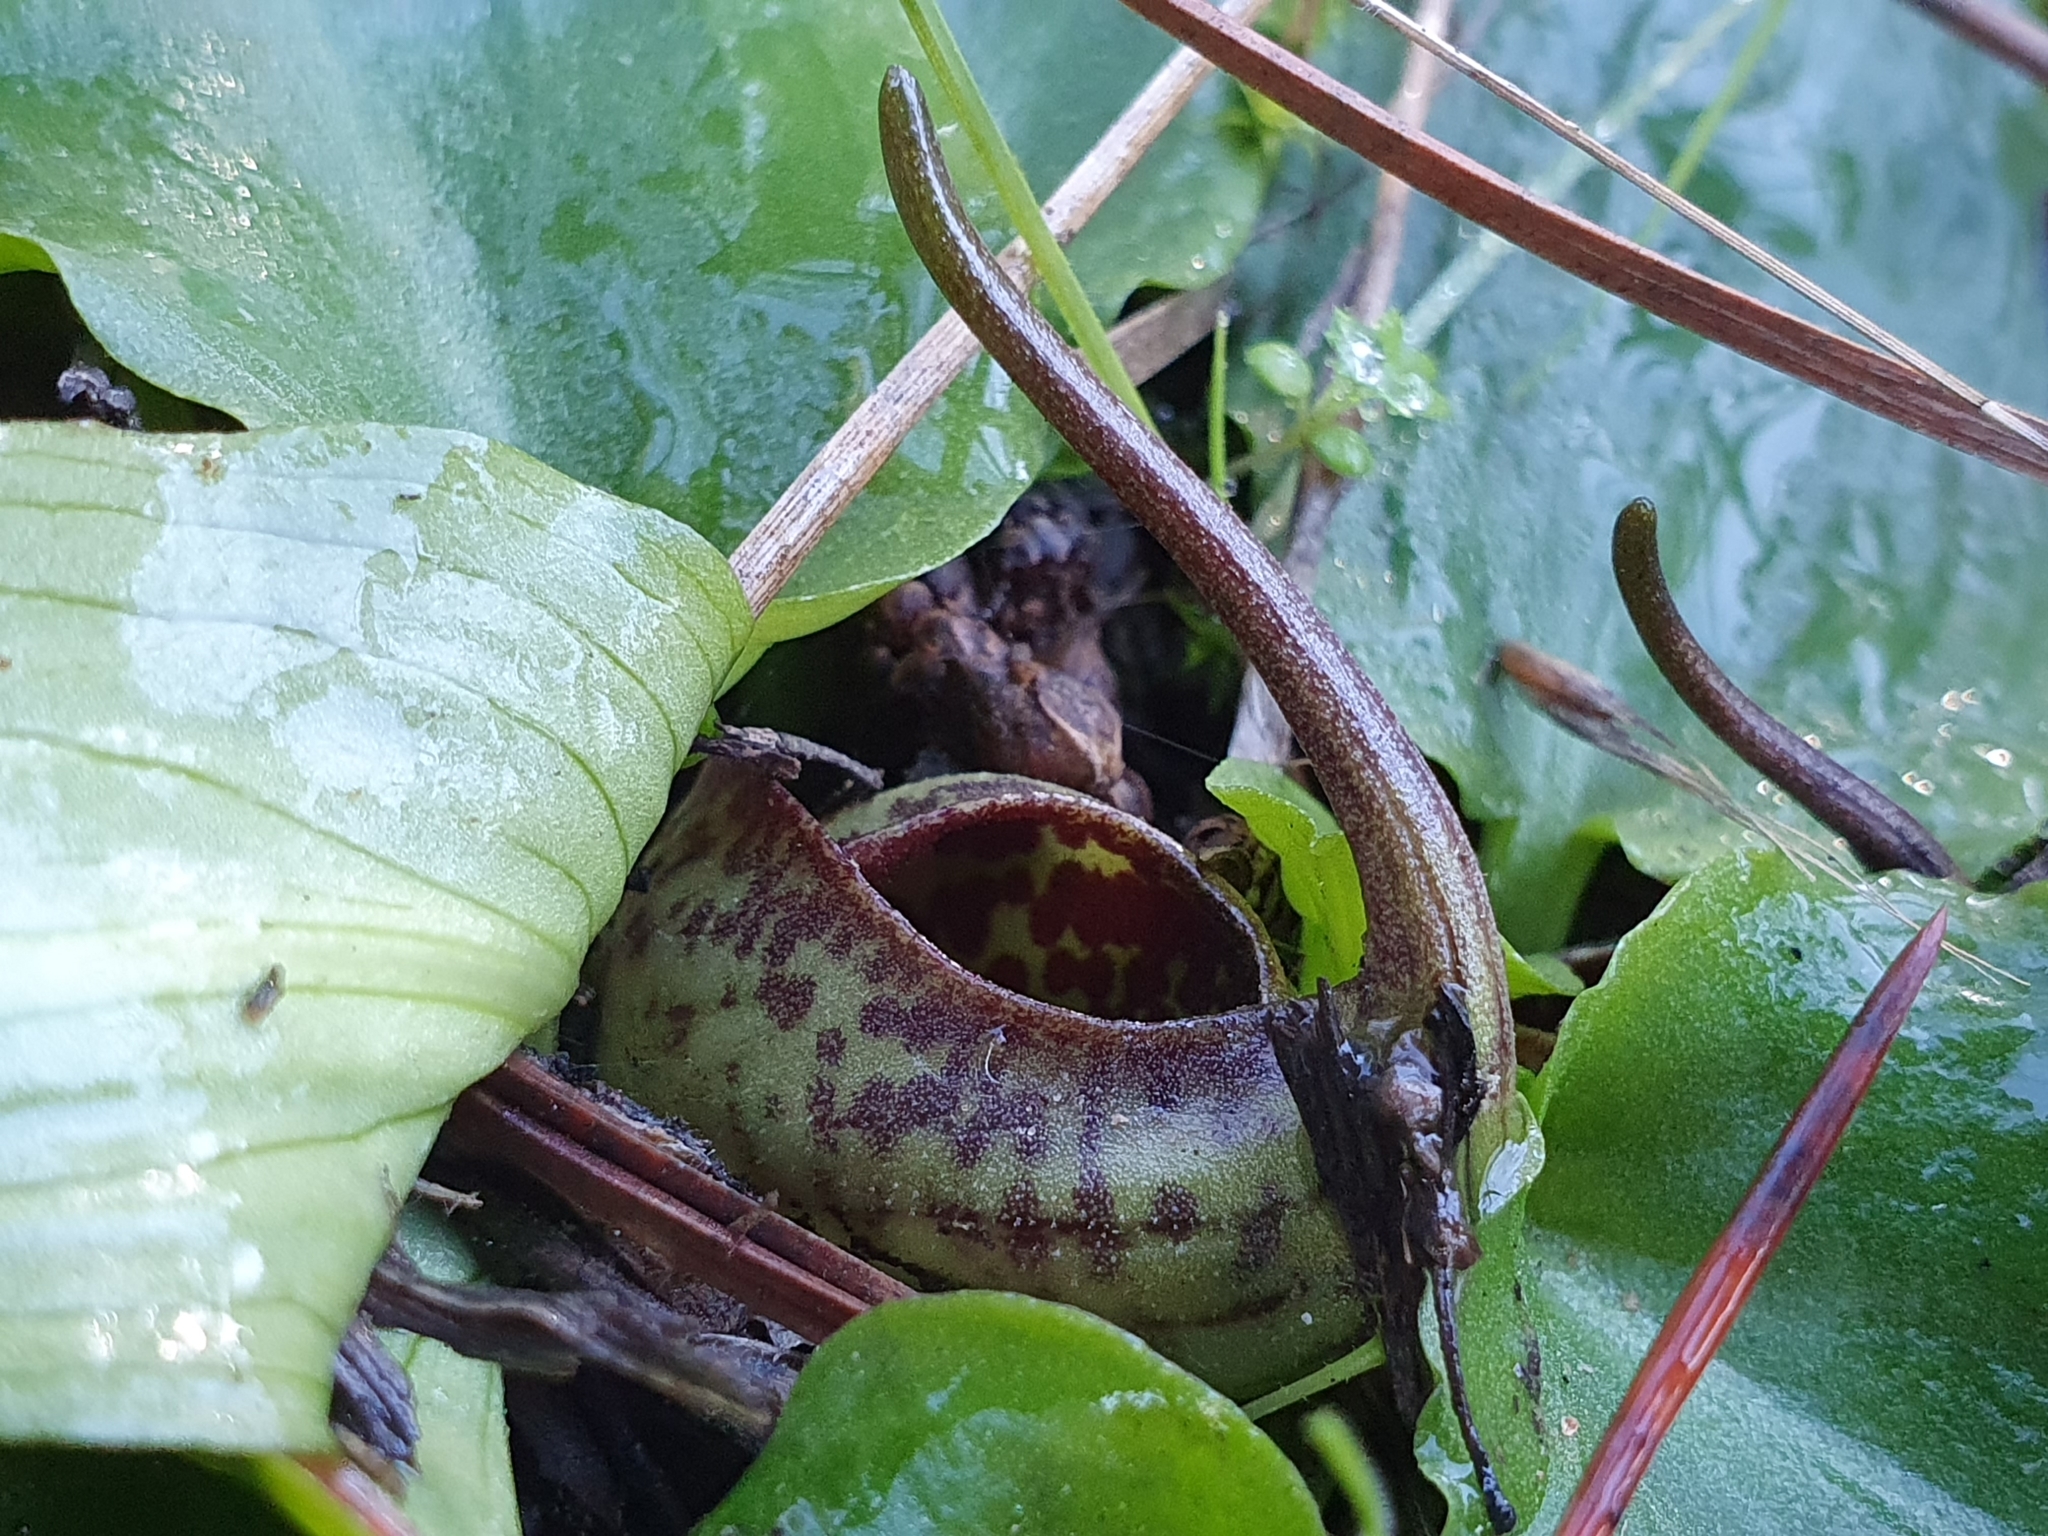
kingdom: Plantae
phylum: Tracheophyta
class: Liliopsida
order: Alismatales
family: Araceae
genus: Ambrosina
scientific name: Ambrosina bassii
